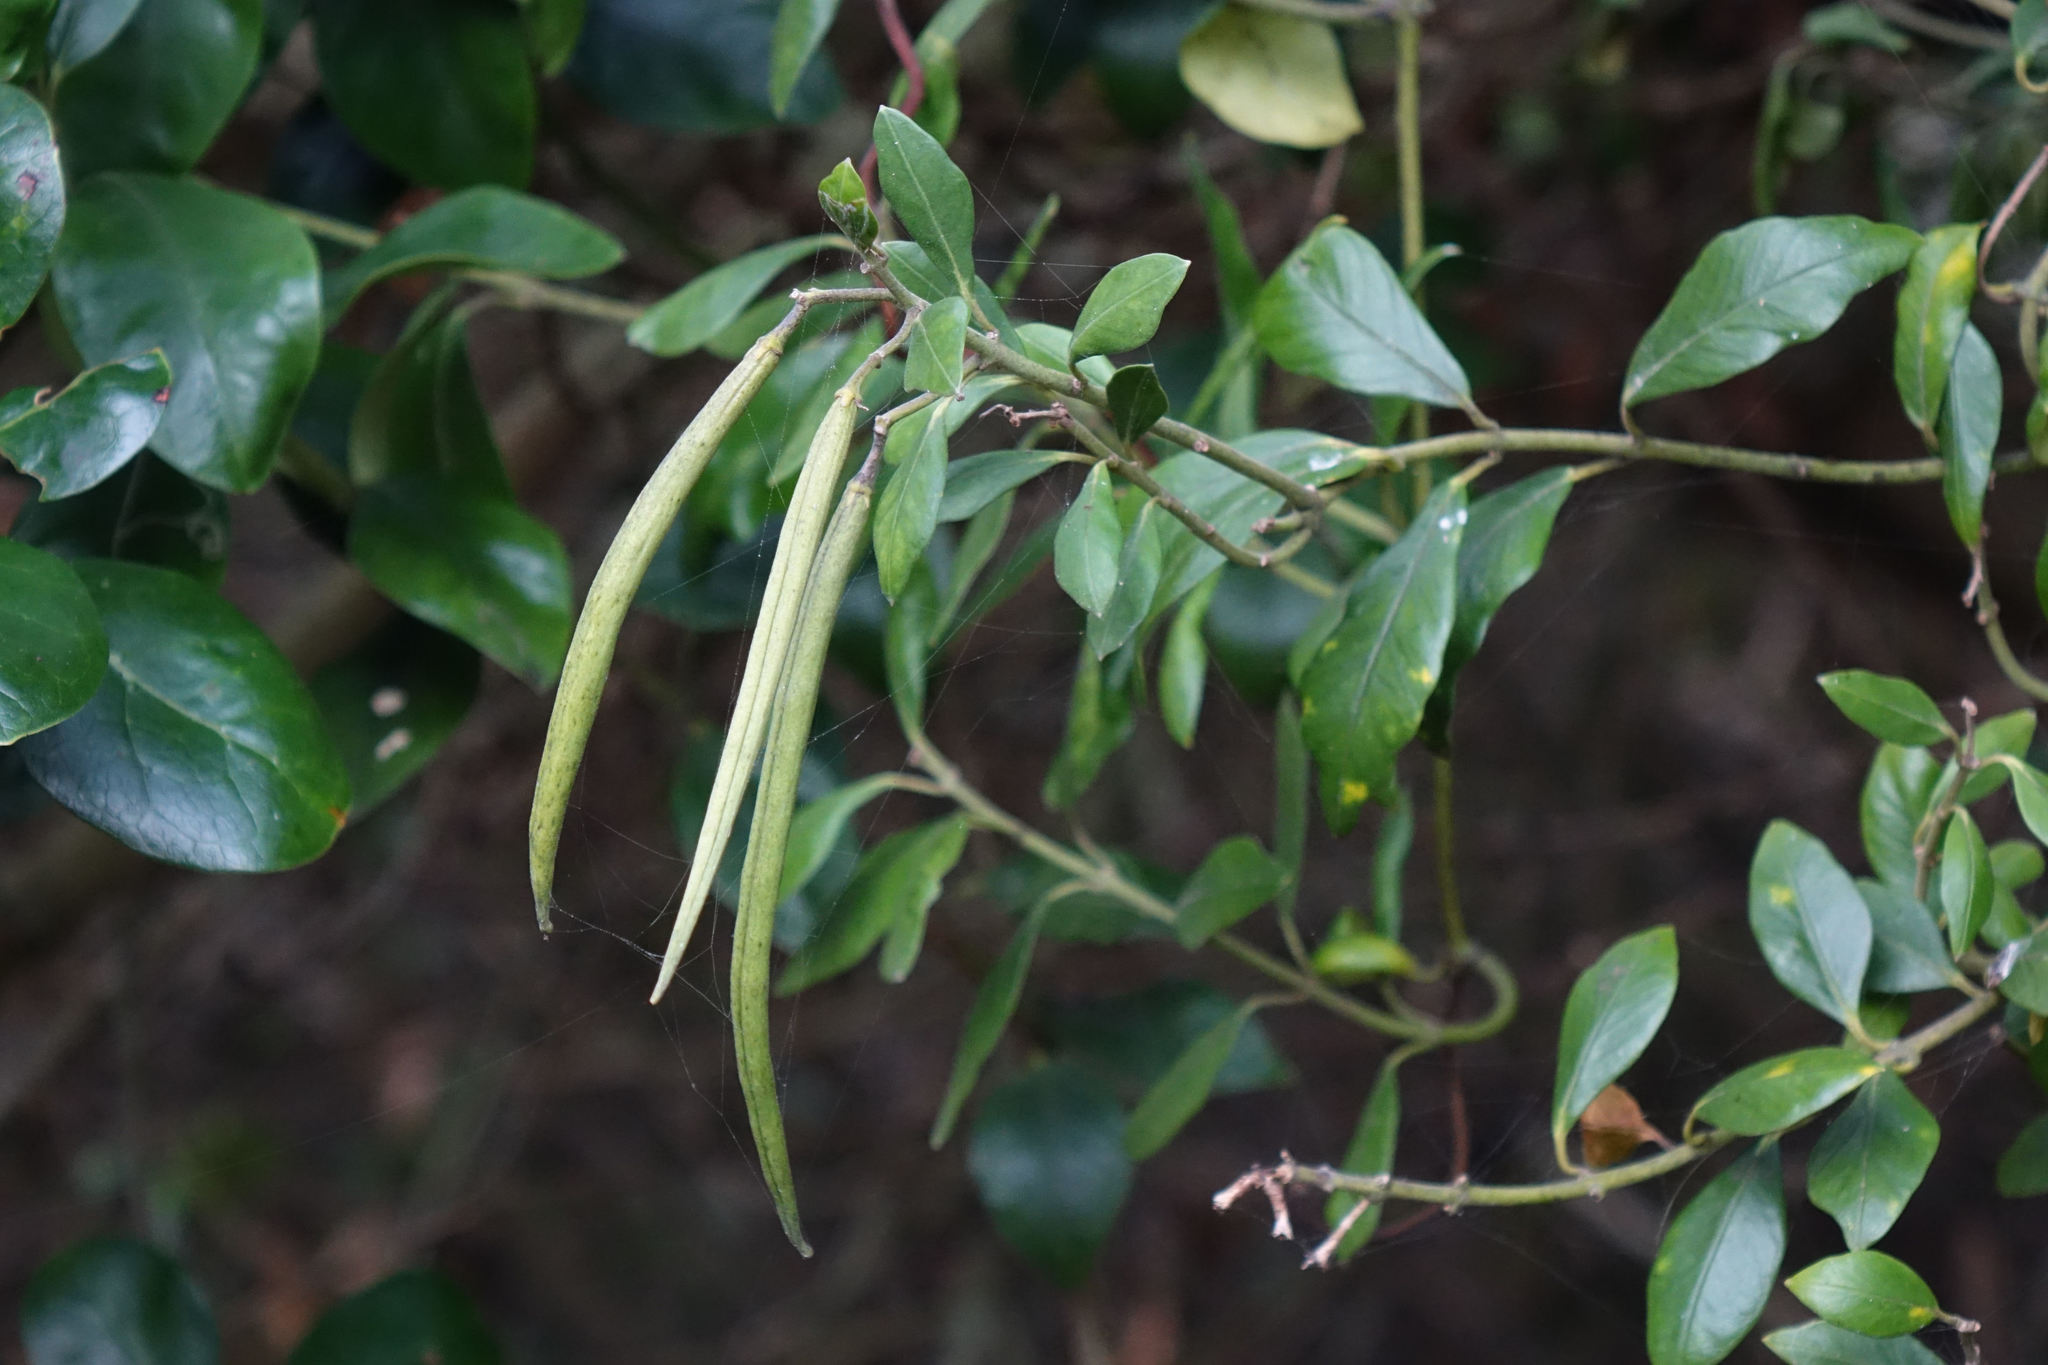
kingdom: Plantae
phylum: Tracheophyta
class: Magnoliopsida
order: Gentianales
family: Apocynaceae
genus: Parsonsia
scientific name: Parsonsia heterophylla
